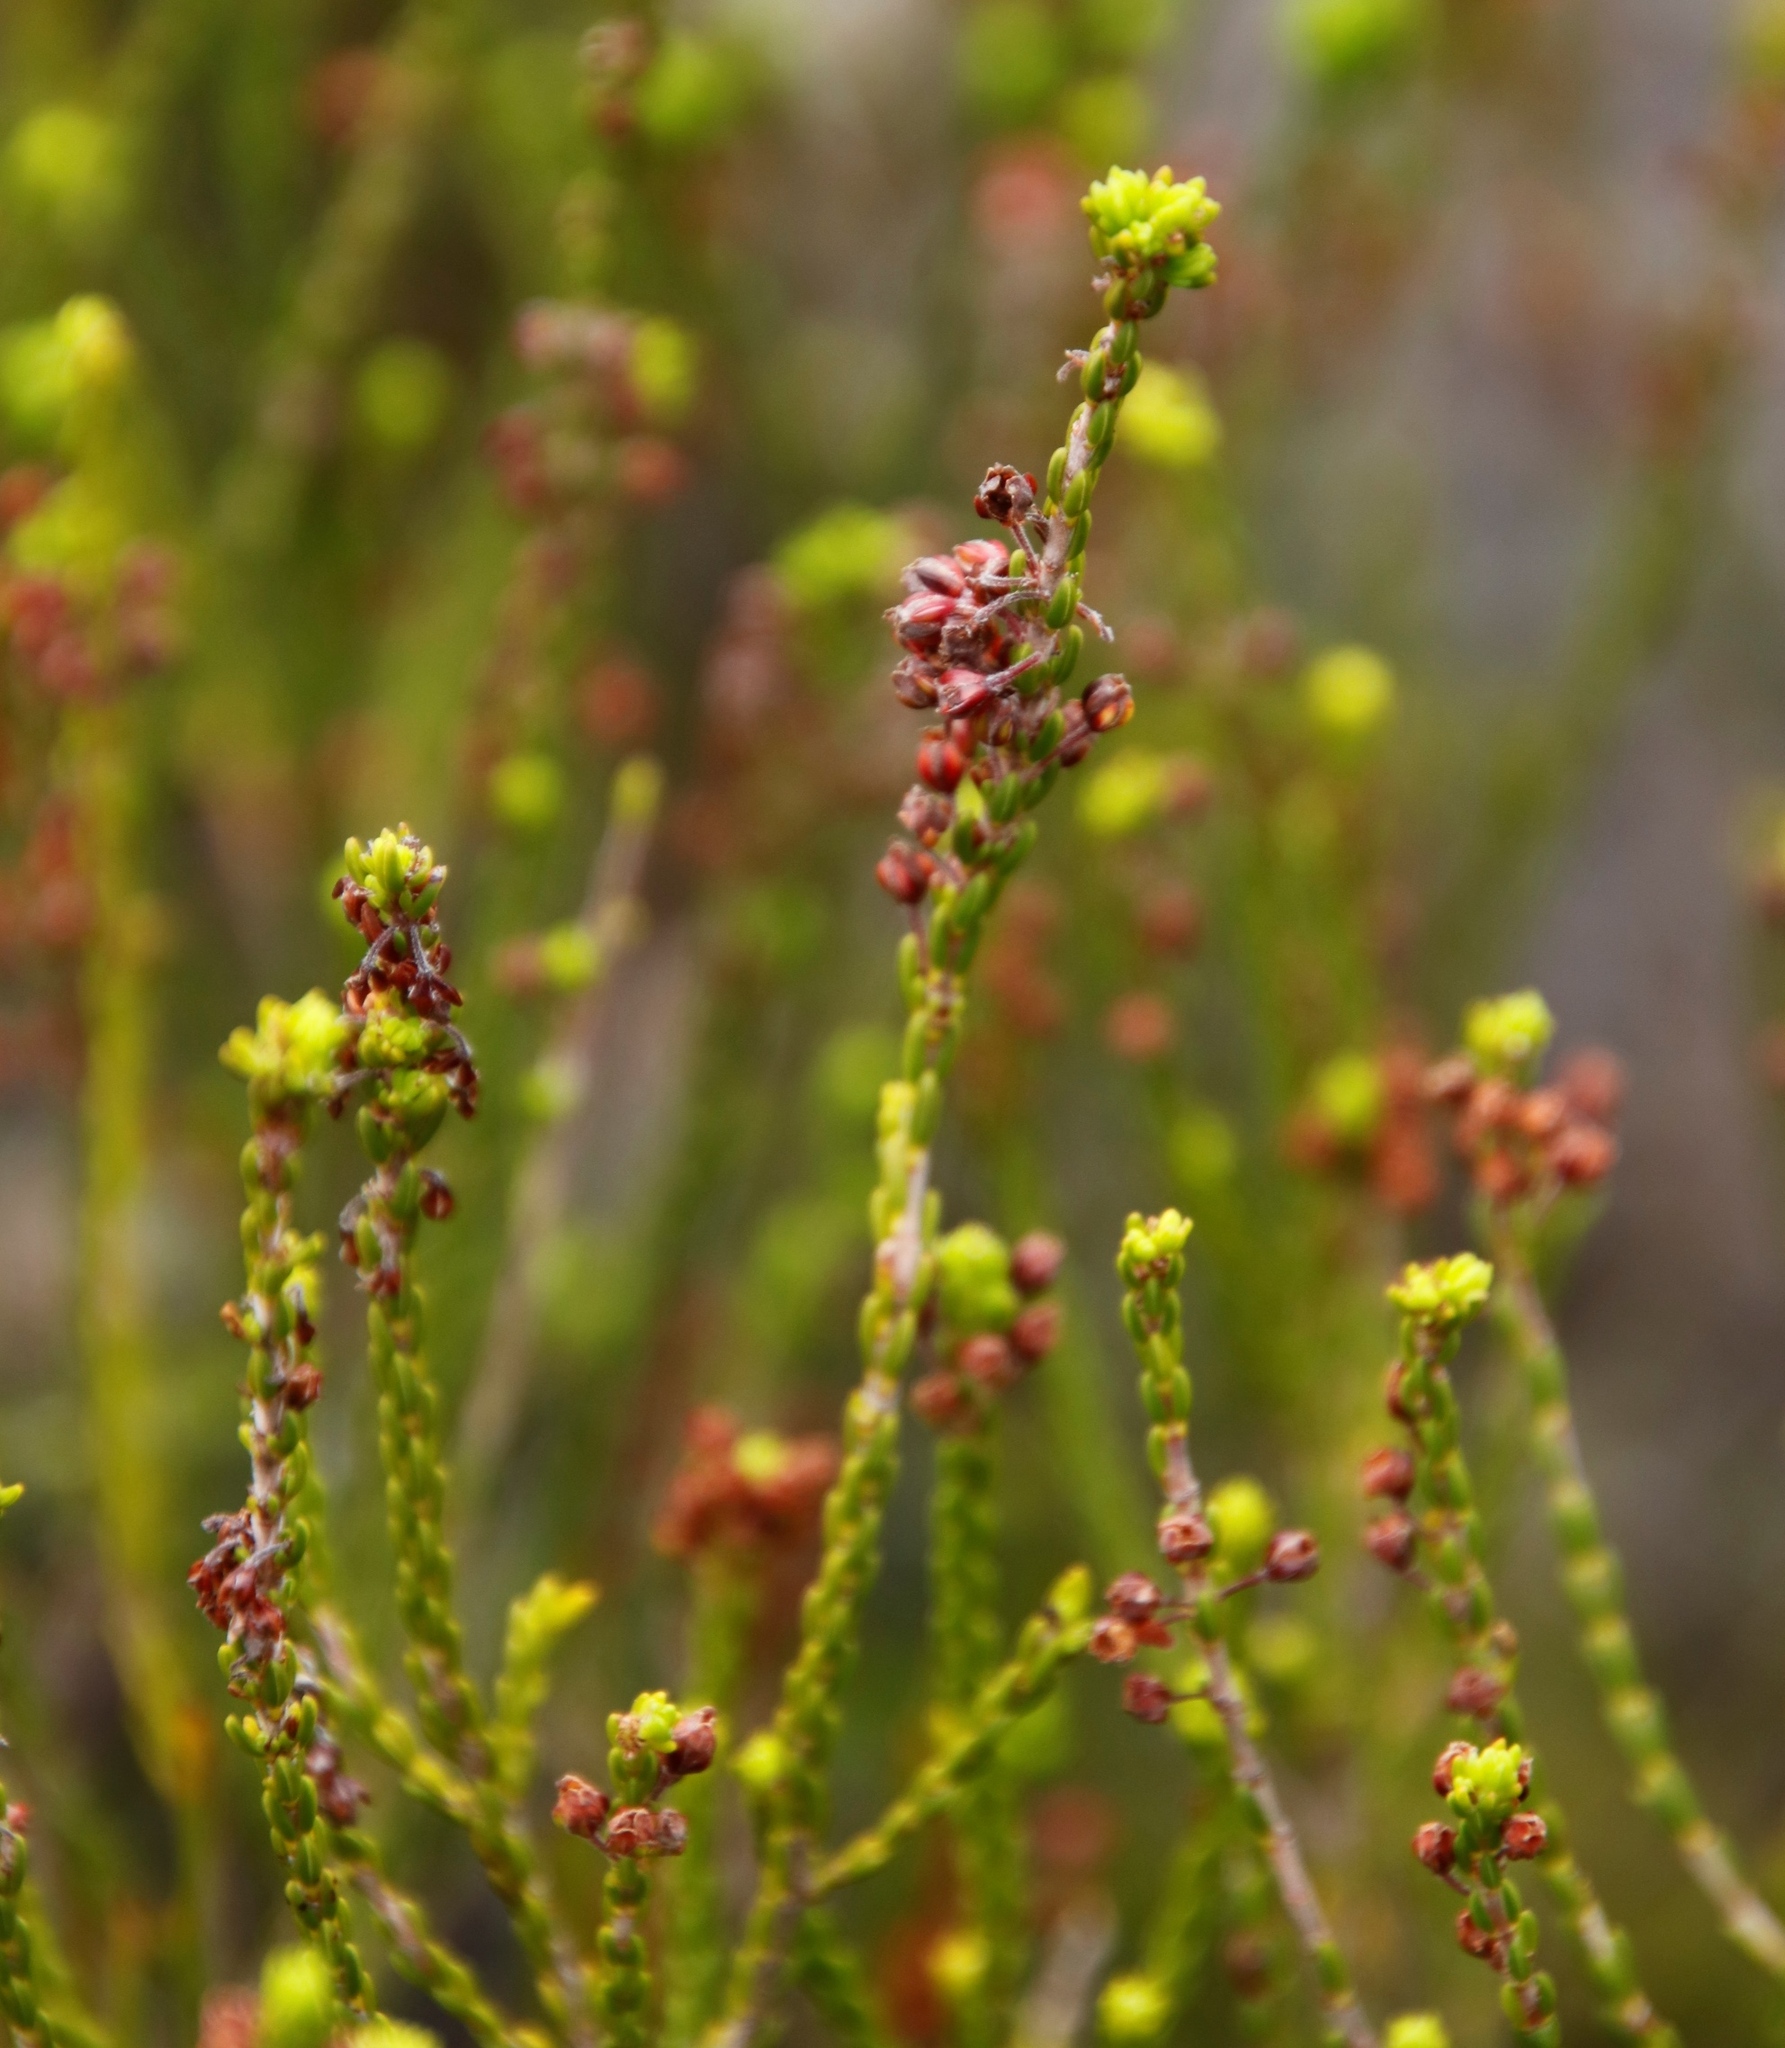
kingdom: Plantae
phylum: Tracheophyta
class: Magnoliopsida
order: Ericales
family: Ericaceae
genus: Erica
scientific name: Erica pulchella
